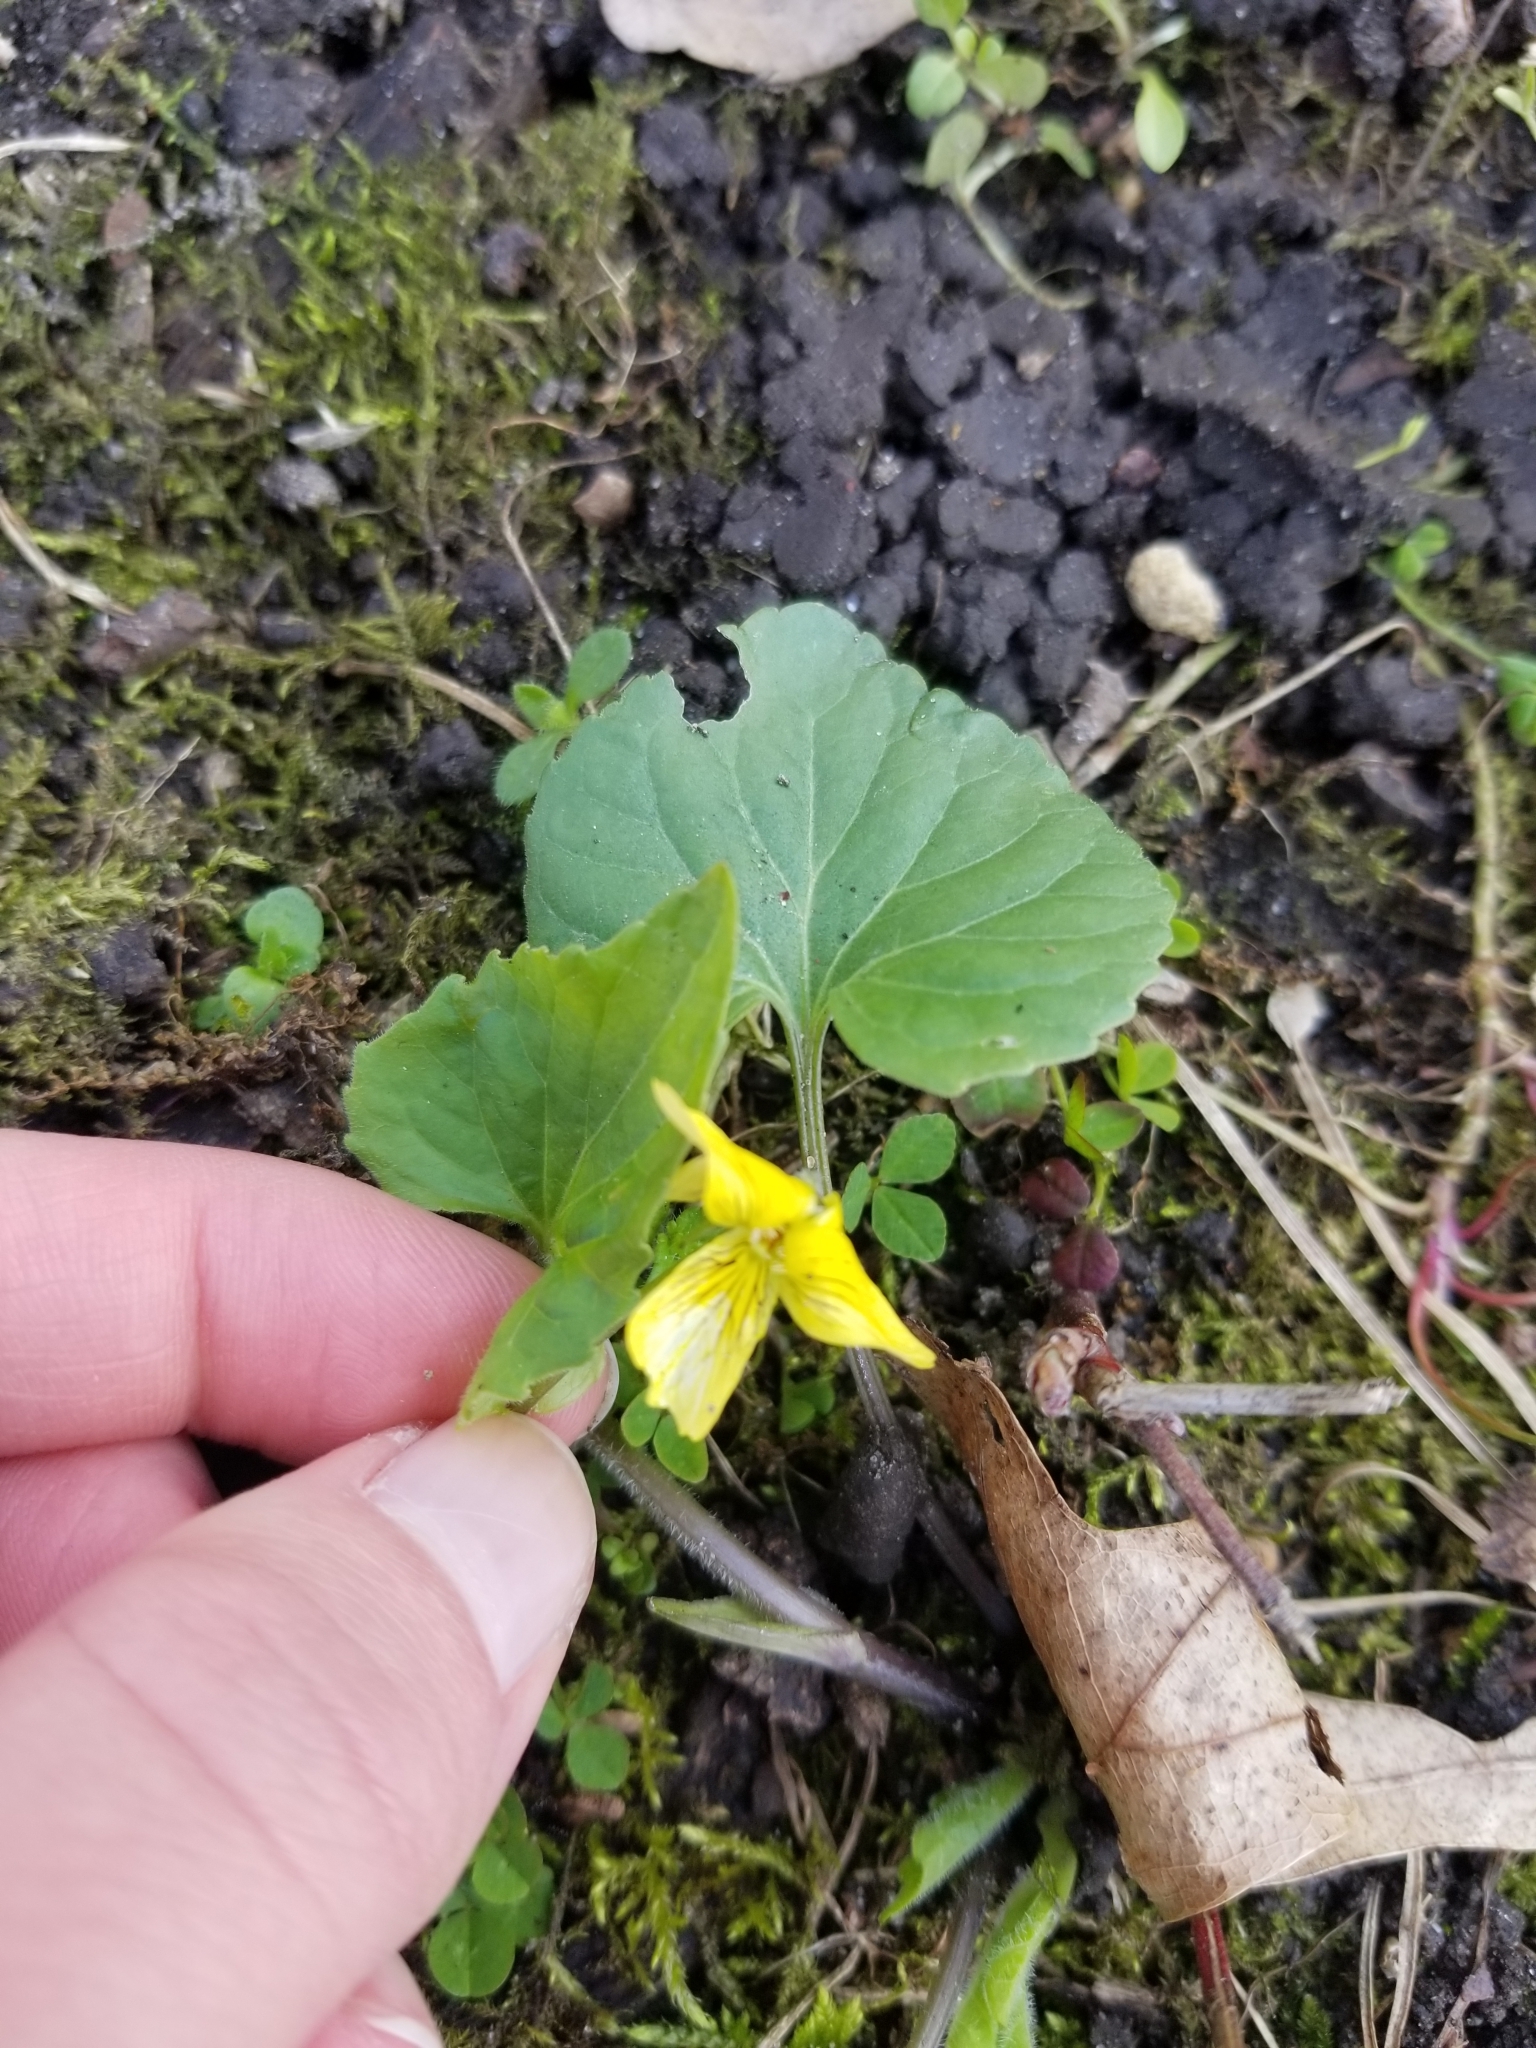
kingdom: Plantae
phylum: Tracheophyta
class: Magnoliopsida
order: Malpighiales
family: Violaceae
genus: Viola
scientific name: Viola eriocarpa
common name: Smooth yellow violet
